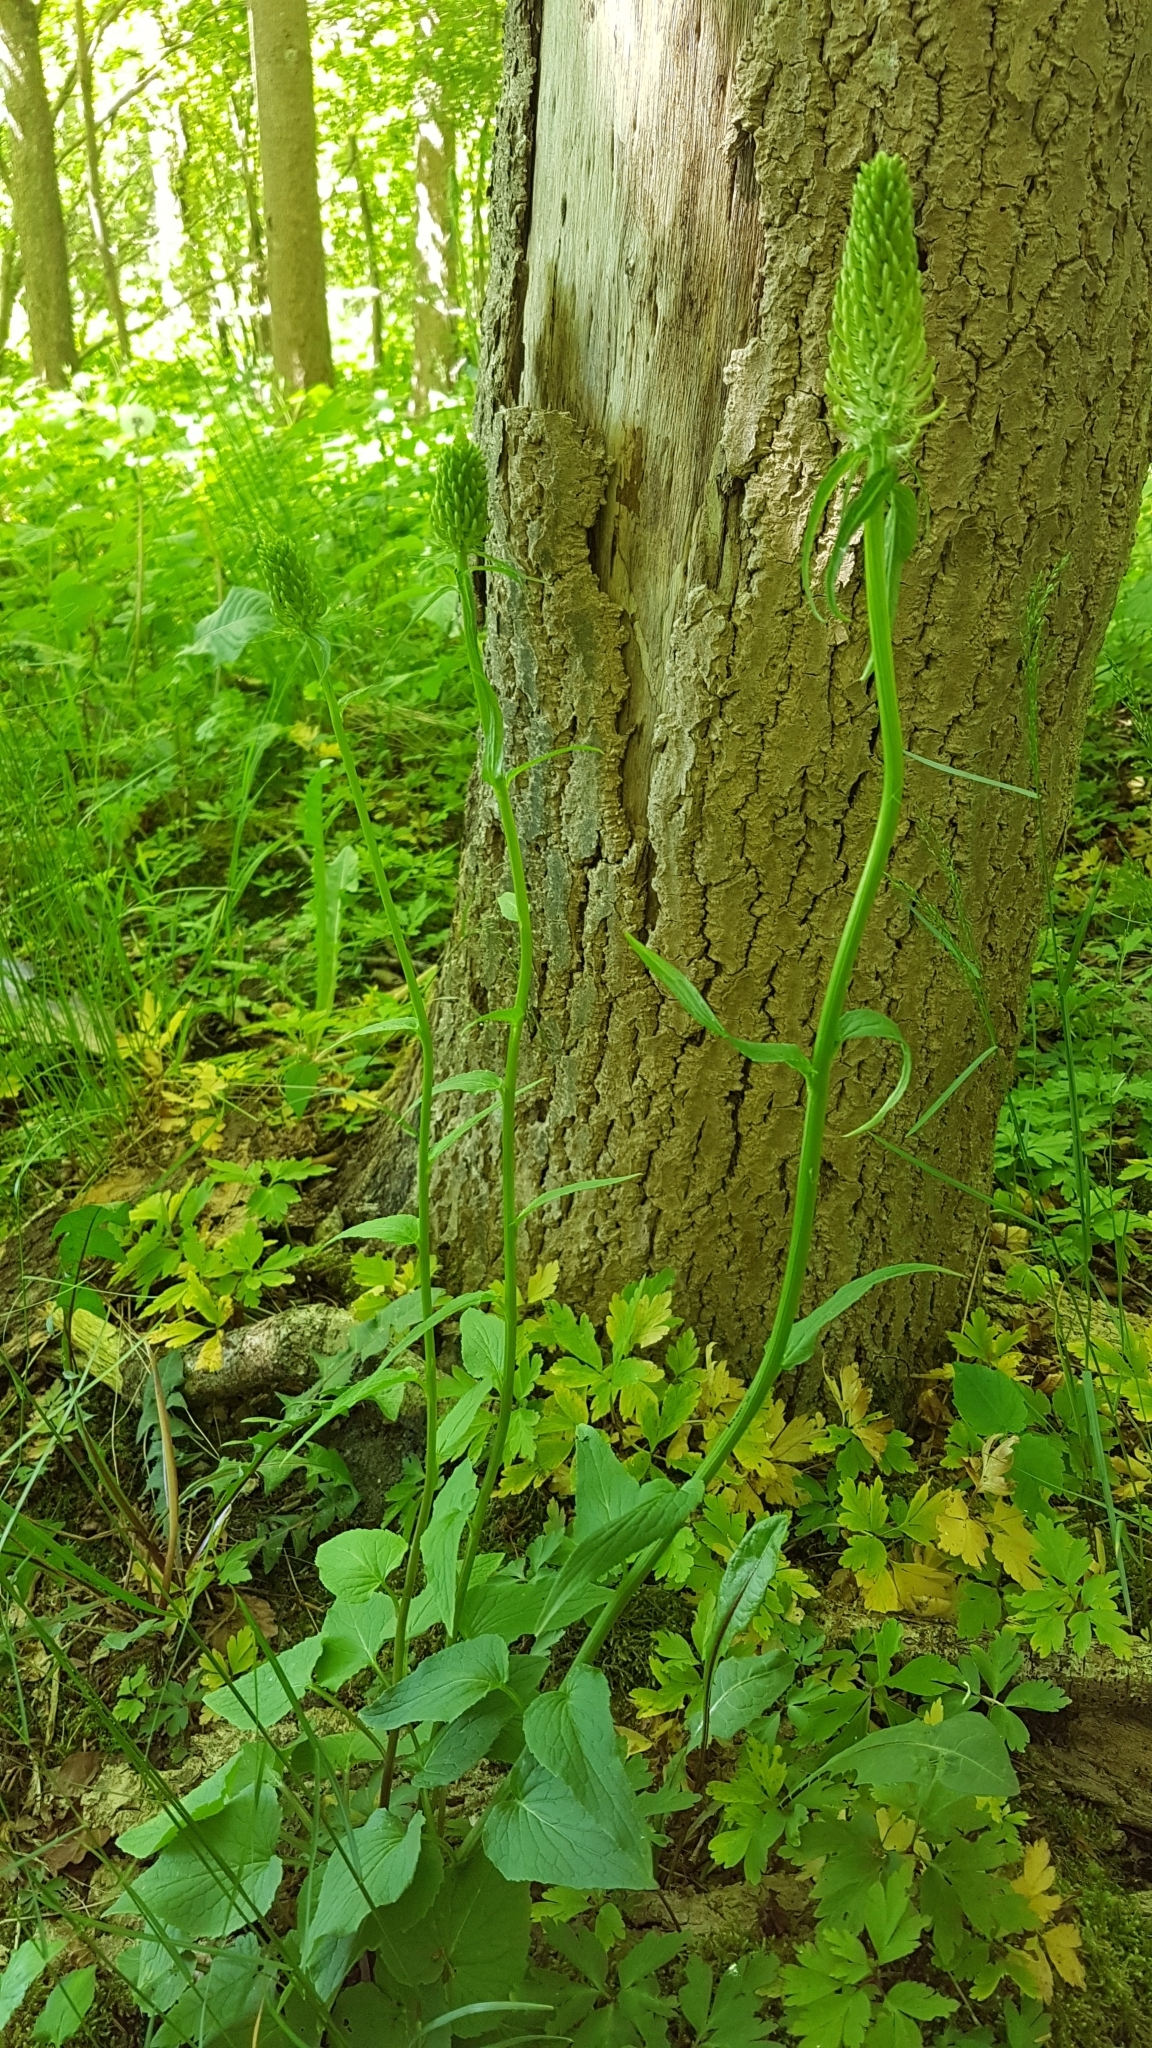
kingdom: Plantae
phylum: Tracheophyta
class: Magnoliopsida
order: Asterales
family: Campanulaceae
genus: Phyteuma
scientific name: Phyteuma spicatum
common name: Spiked rampion
